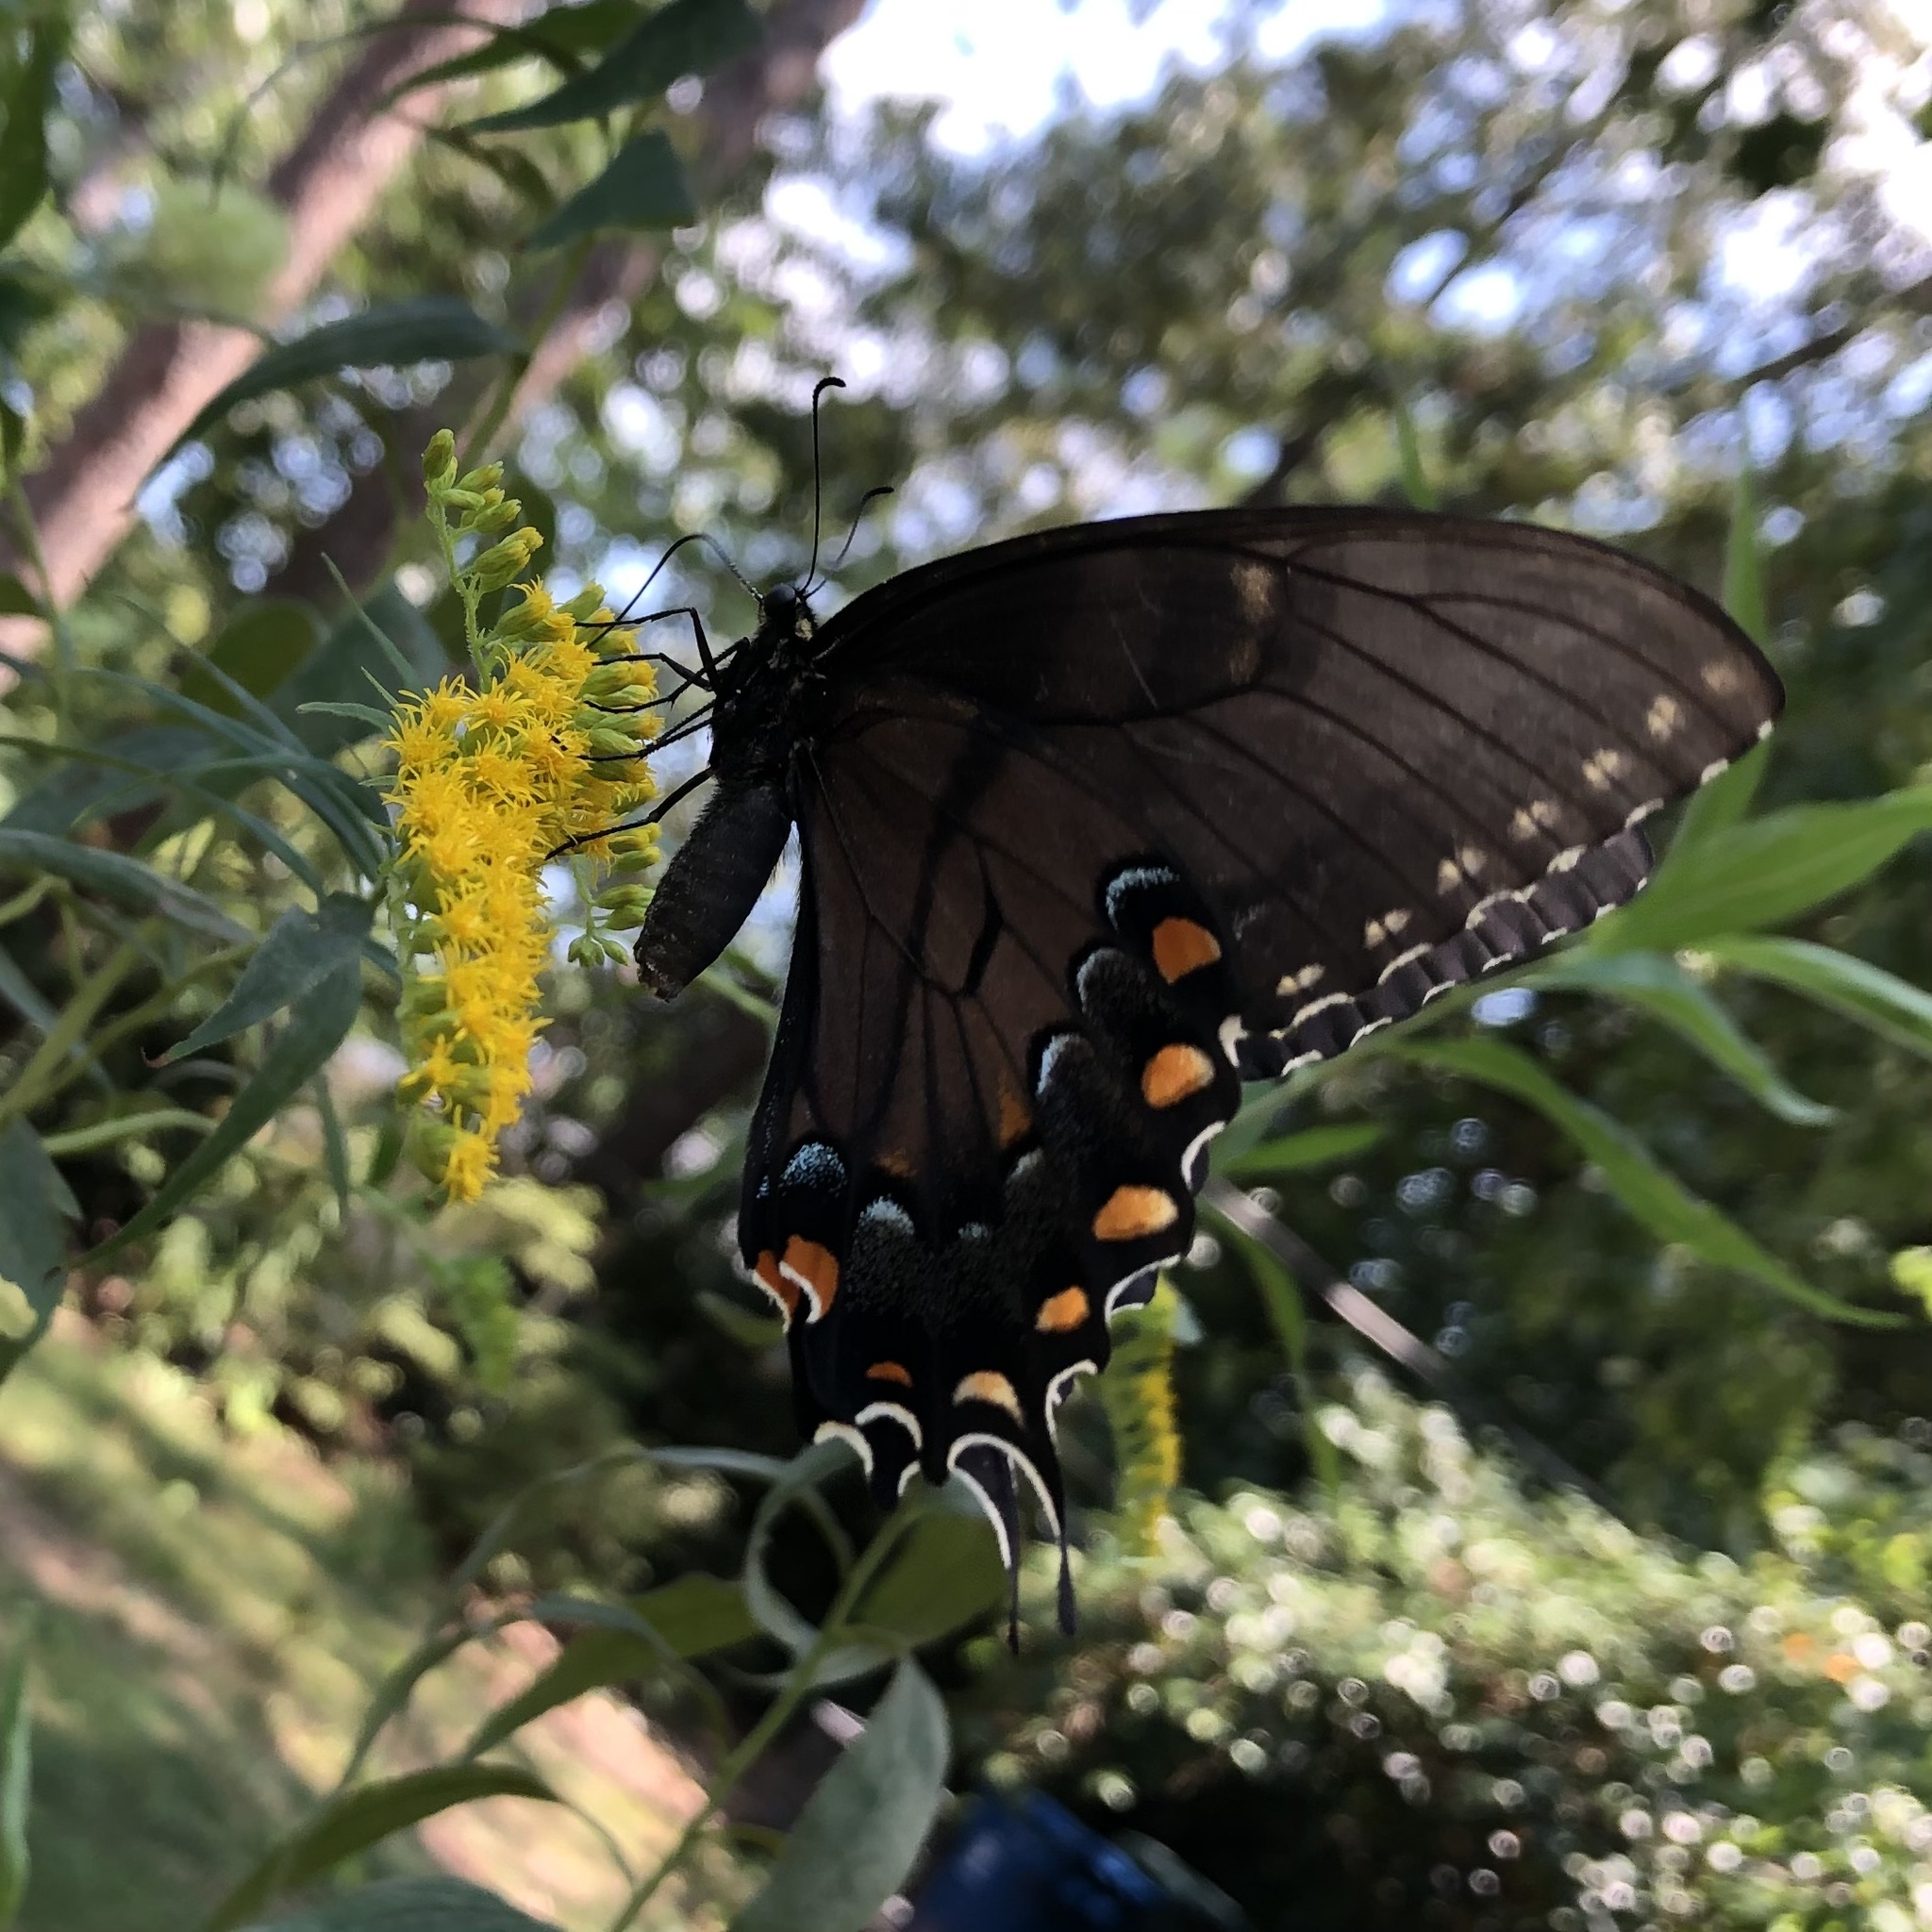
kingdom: Animalia
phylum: Arthropoda
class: Insecta
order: Lepidoptera
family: Papilionidae
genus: Papilio
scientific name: Papilio glaucus
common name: Tiger swallowtail
